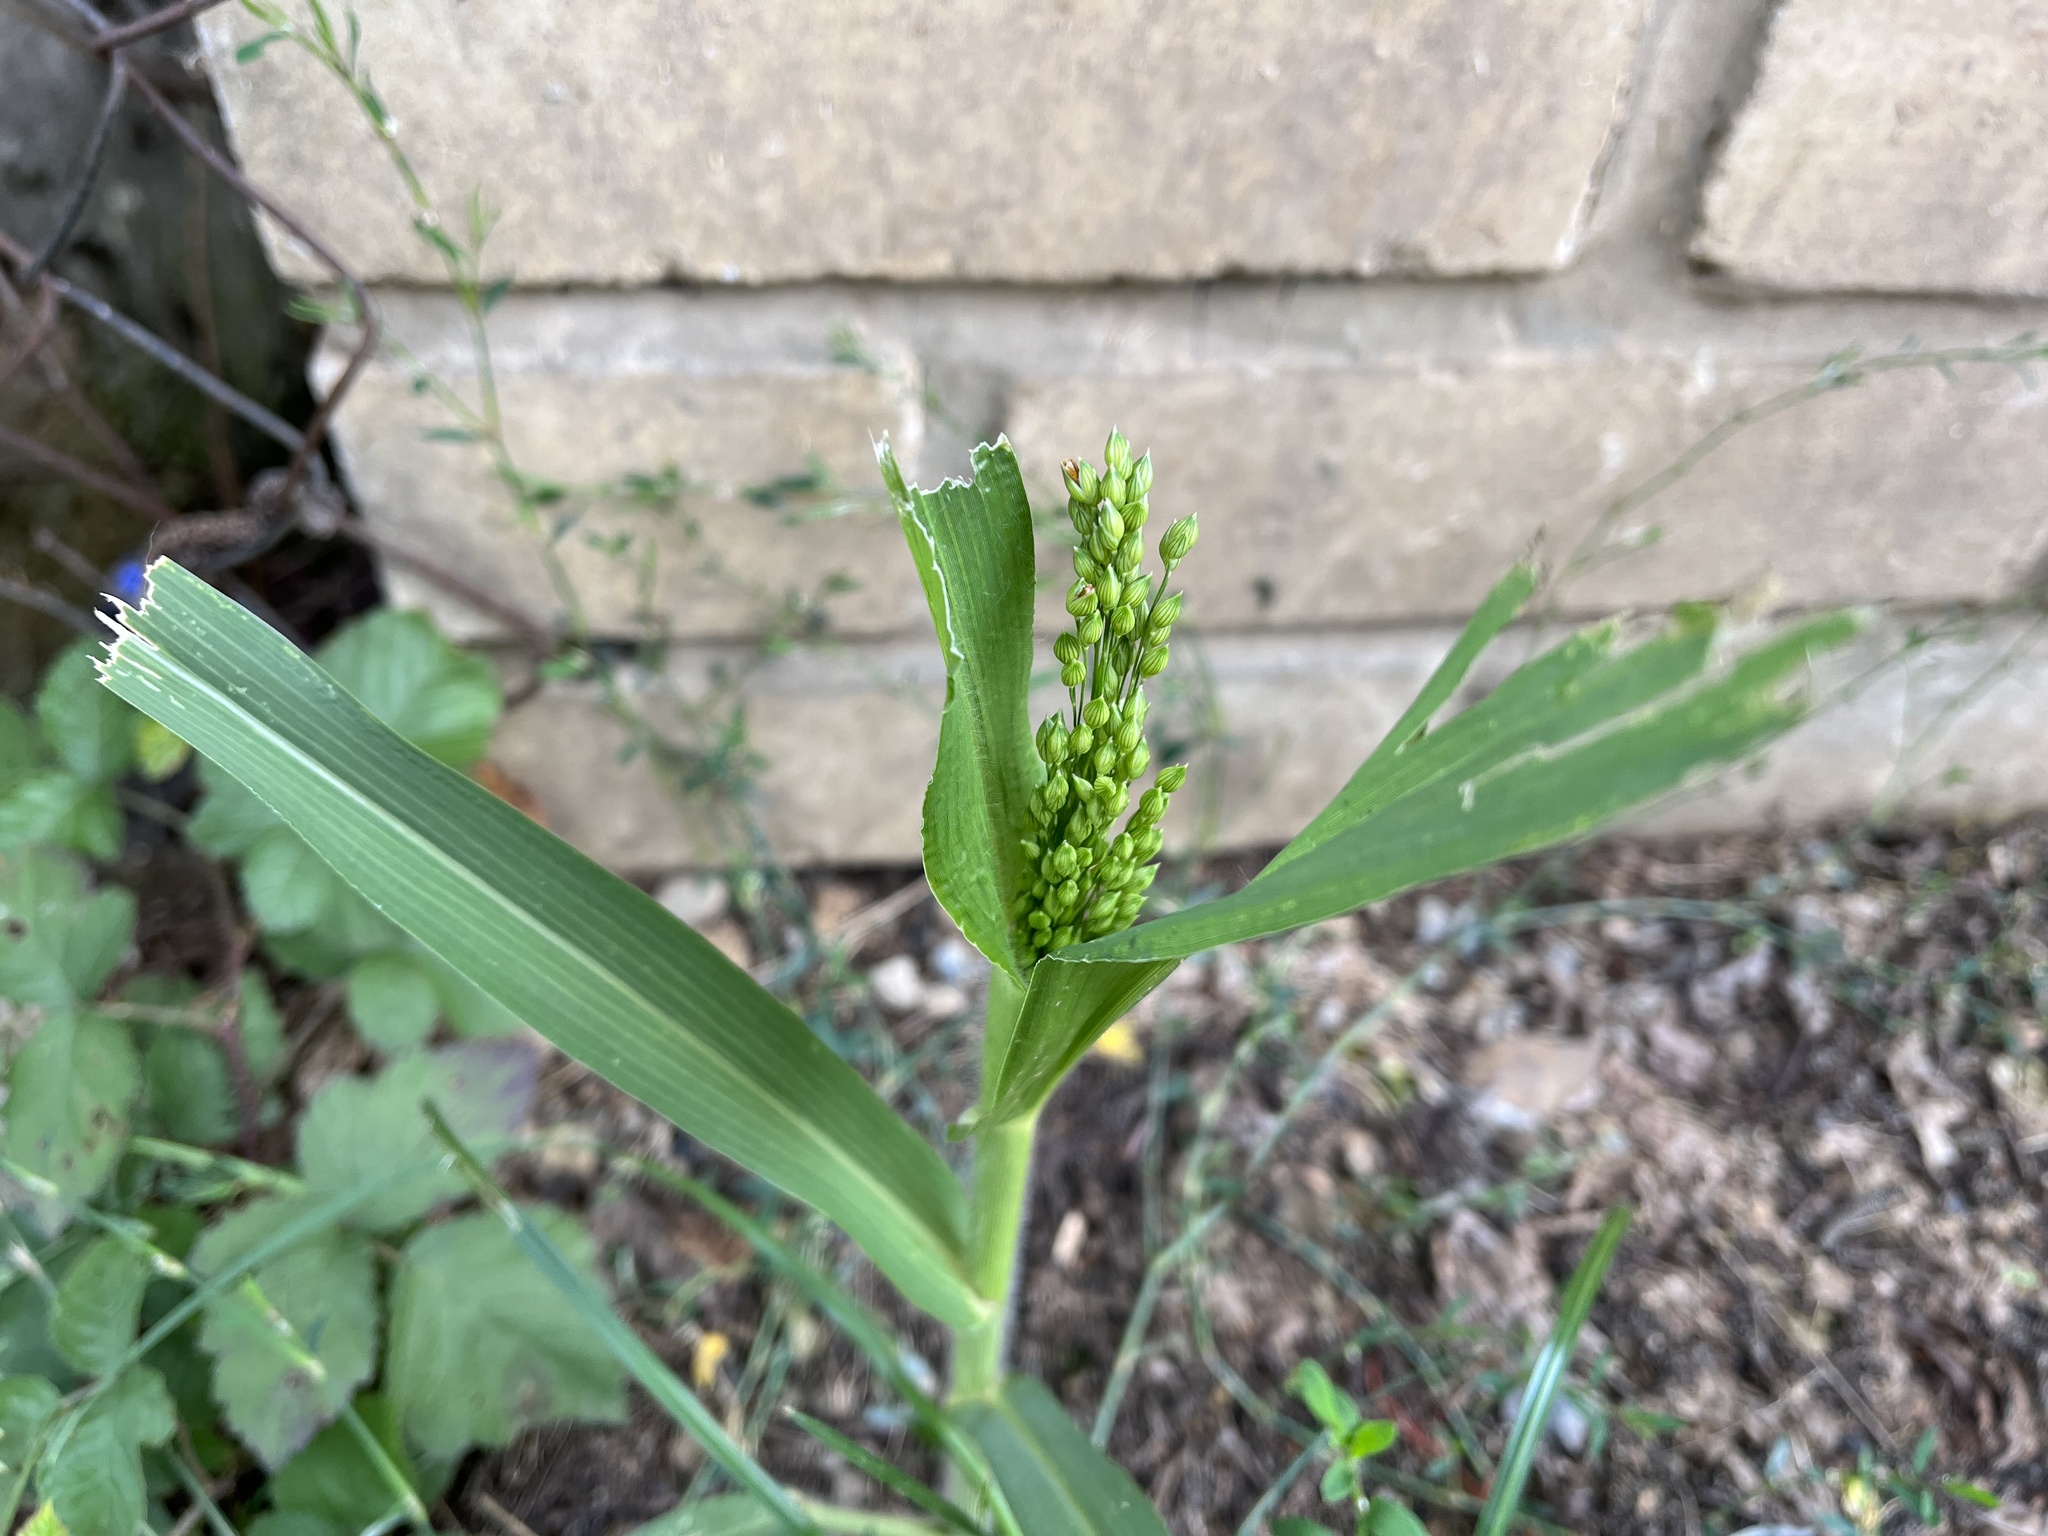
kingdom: Plantae
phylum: Tracheophyta
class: Liliopsida
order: Poales
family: Poaceae
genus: Panicum
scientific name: Panicum miliaceum
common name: Common millet
